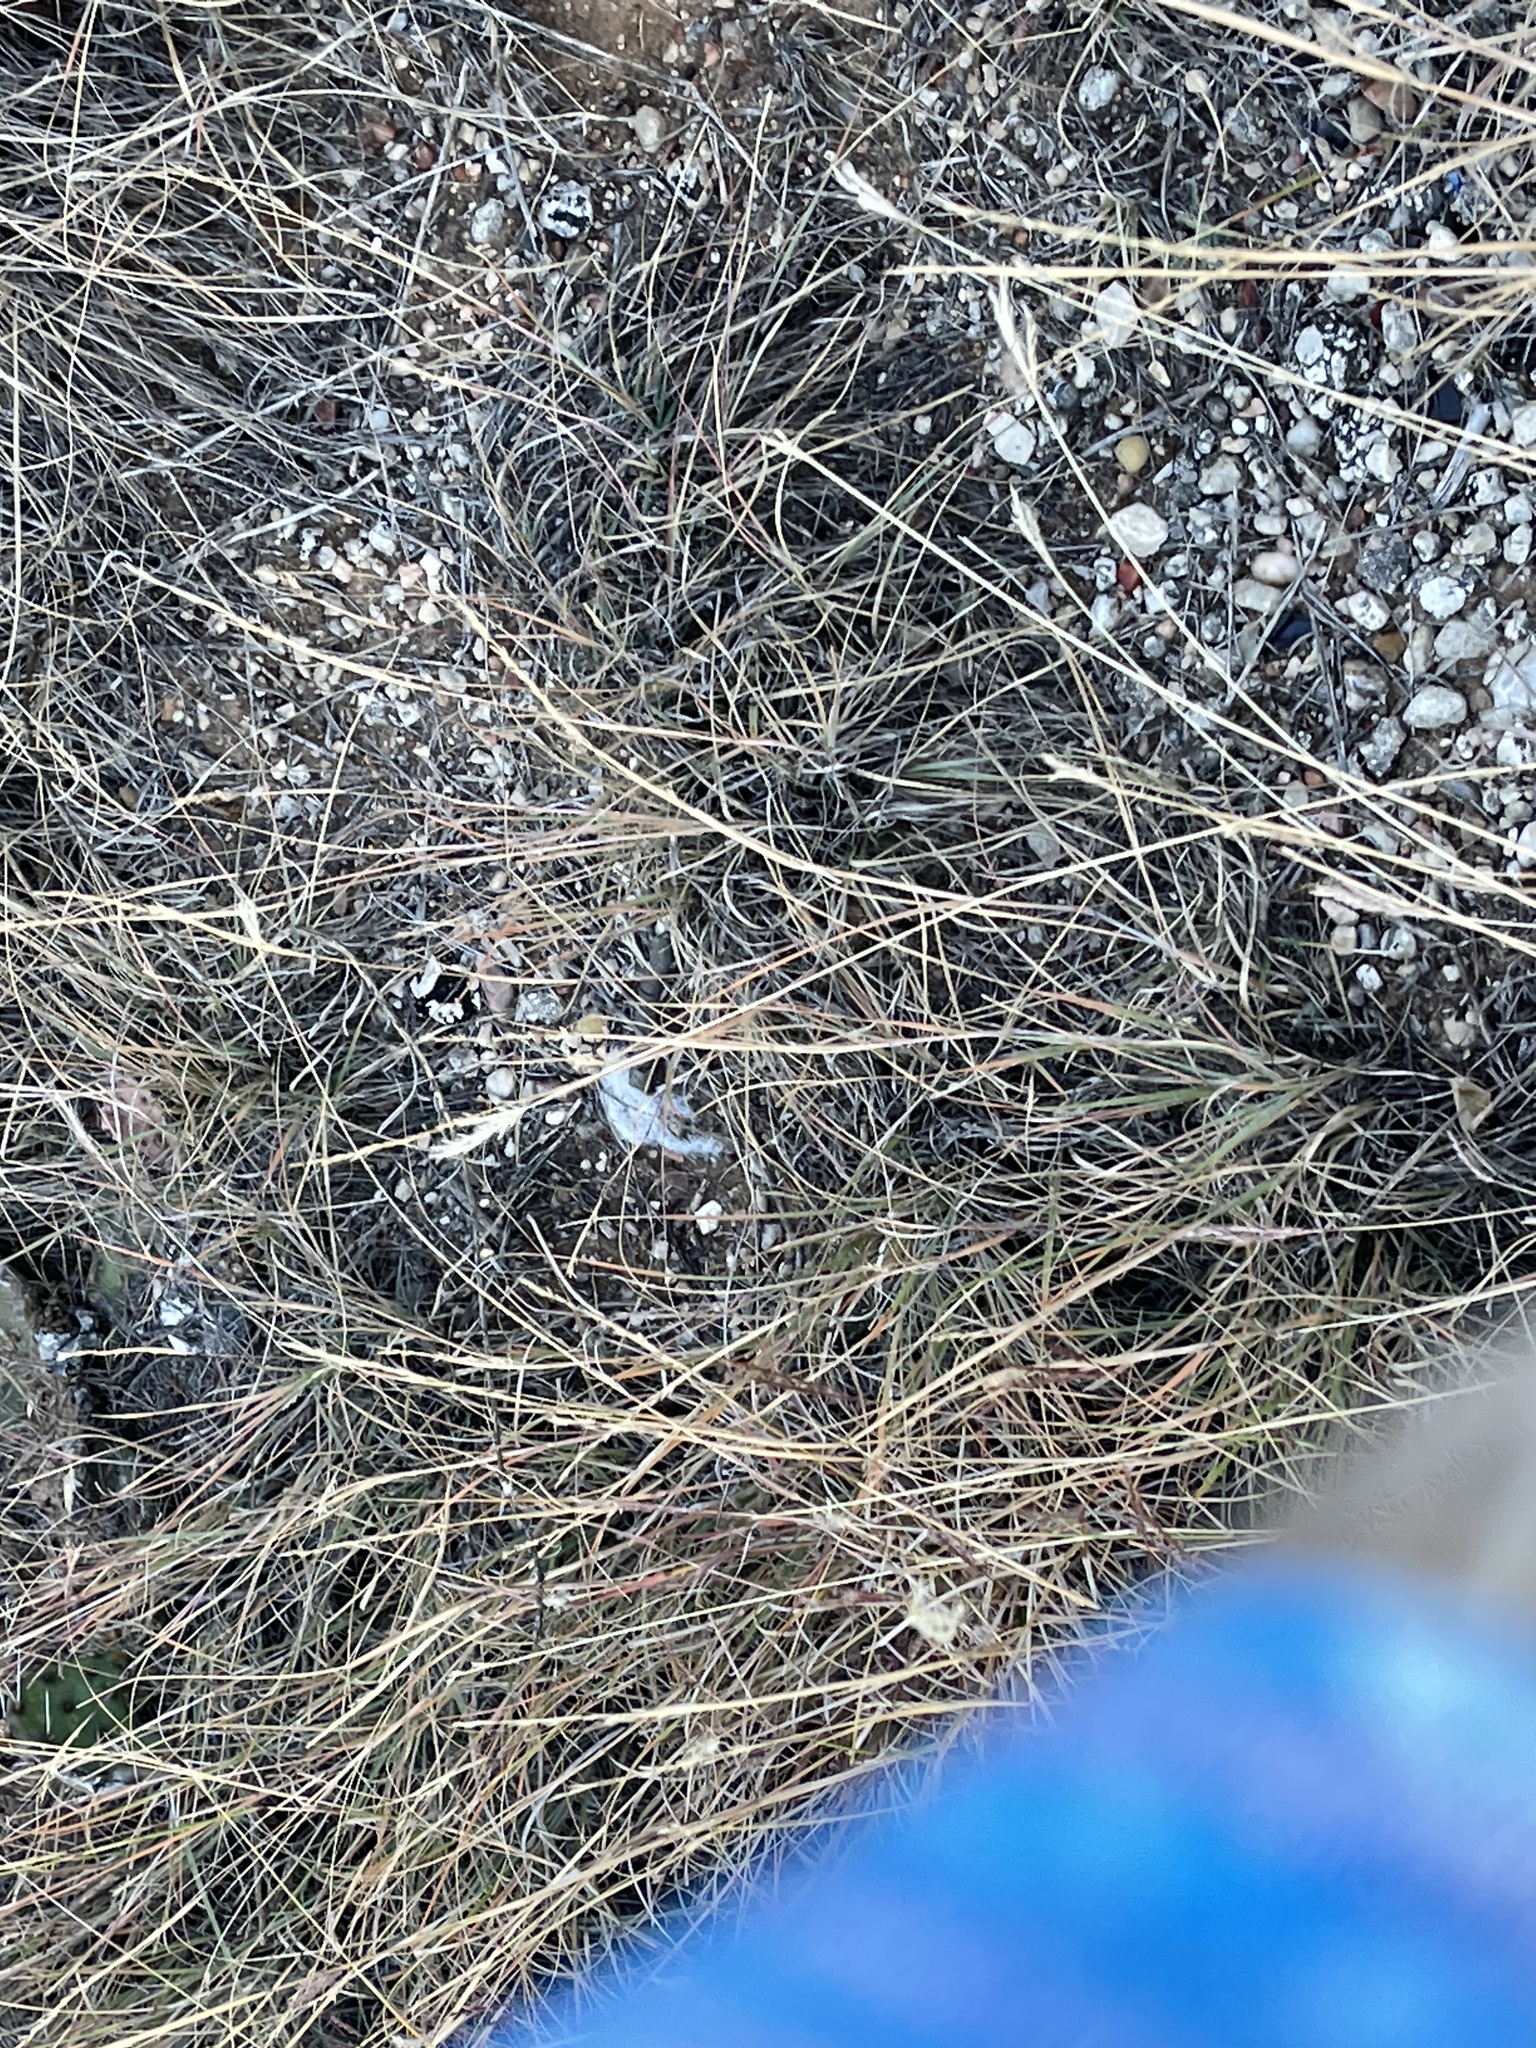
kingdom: Plantae
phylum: Tracheophyta
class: Magnoliopsida
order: Caryophyllales
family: Cactaceae
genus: Echinocereus
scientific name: Echinocereus reichenbachii
